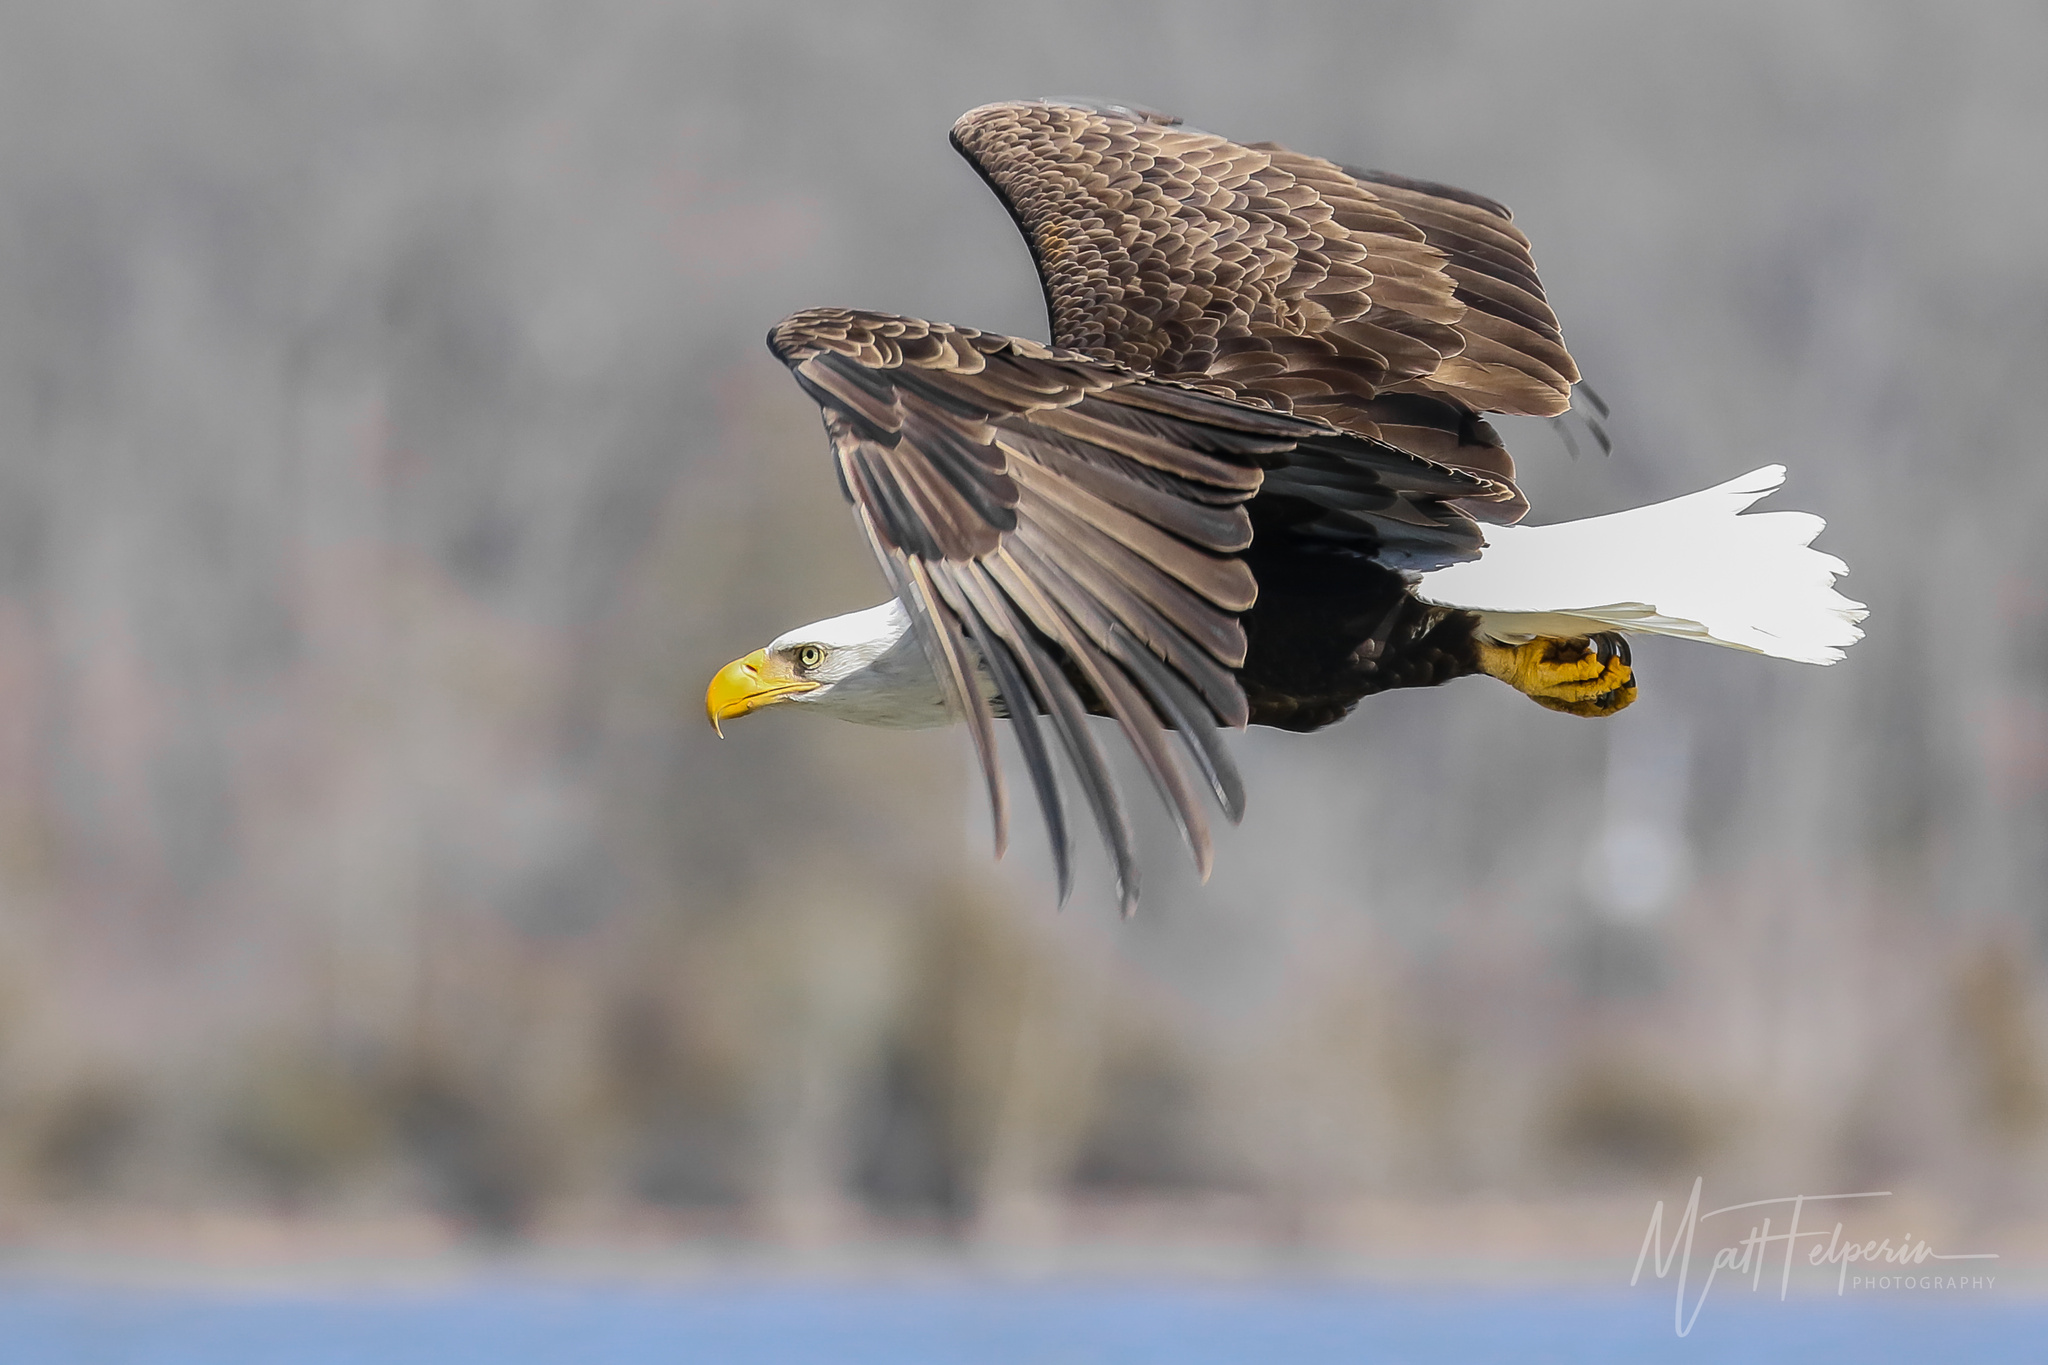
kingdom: Animalia
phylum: Chordata
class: Aves
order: Accipitriformes
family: Accipitridae
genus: Haliaeetus
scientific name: Haliaeetus leucocephalus
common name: Bald eagle
